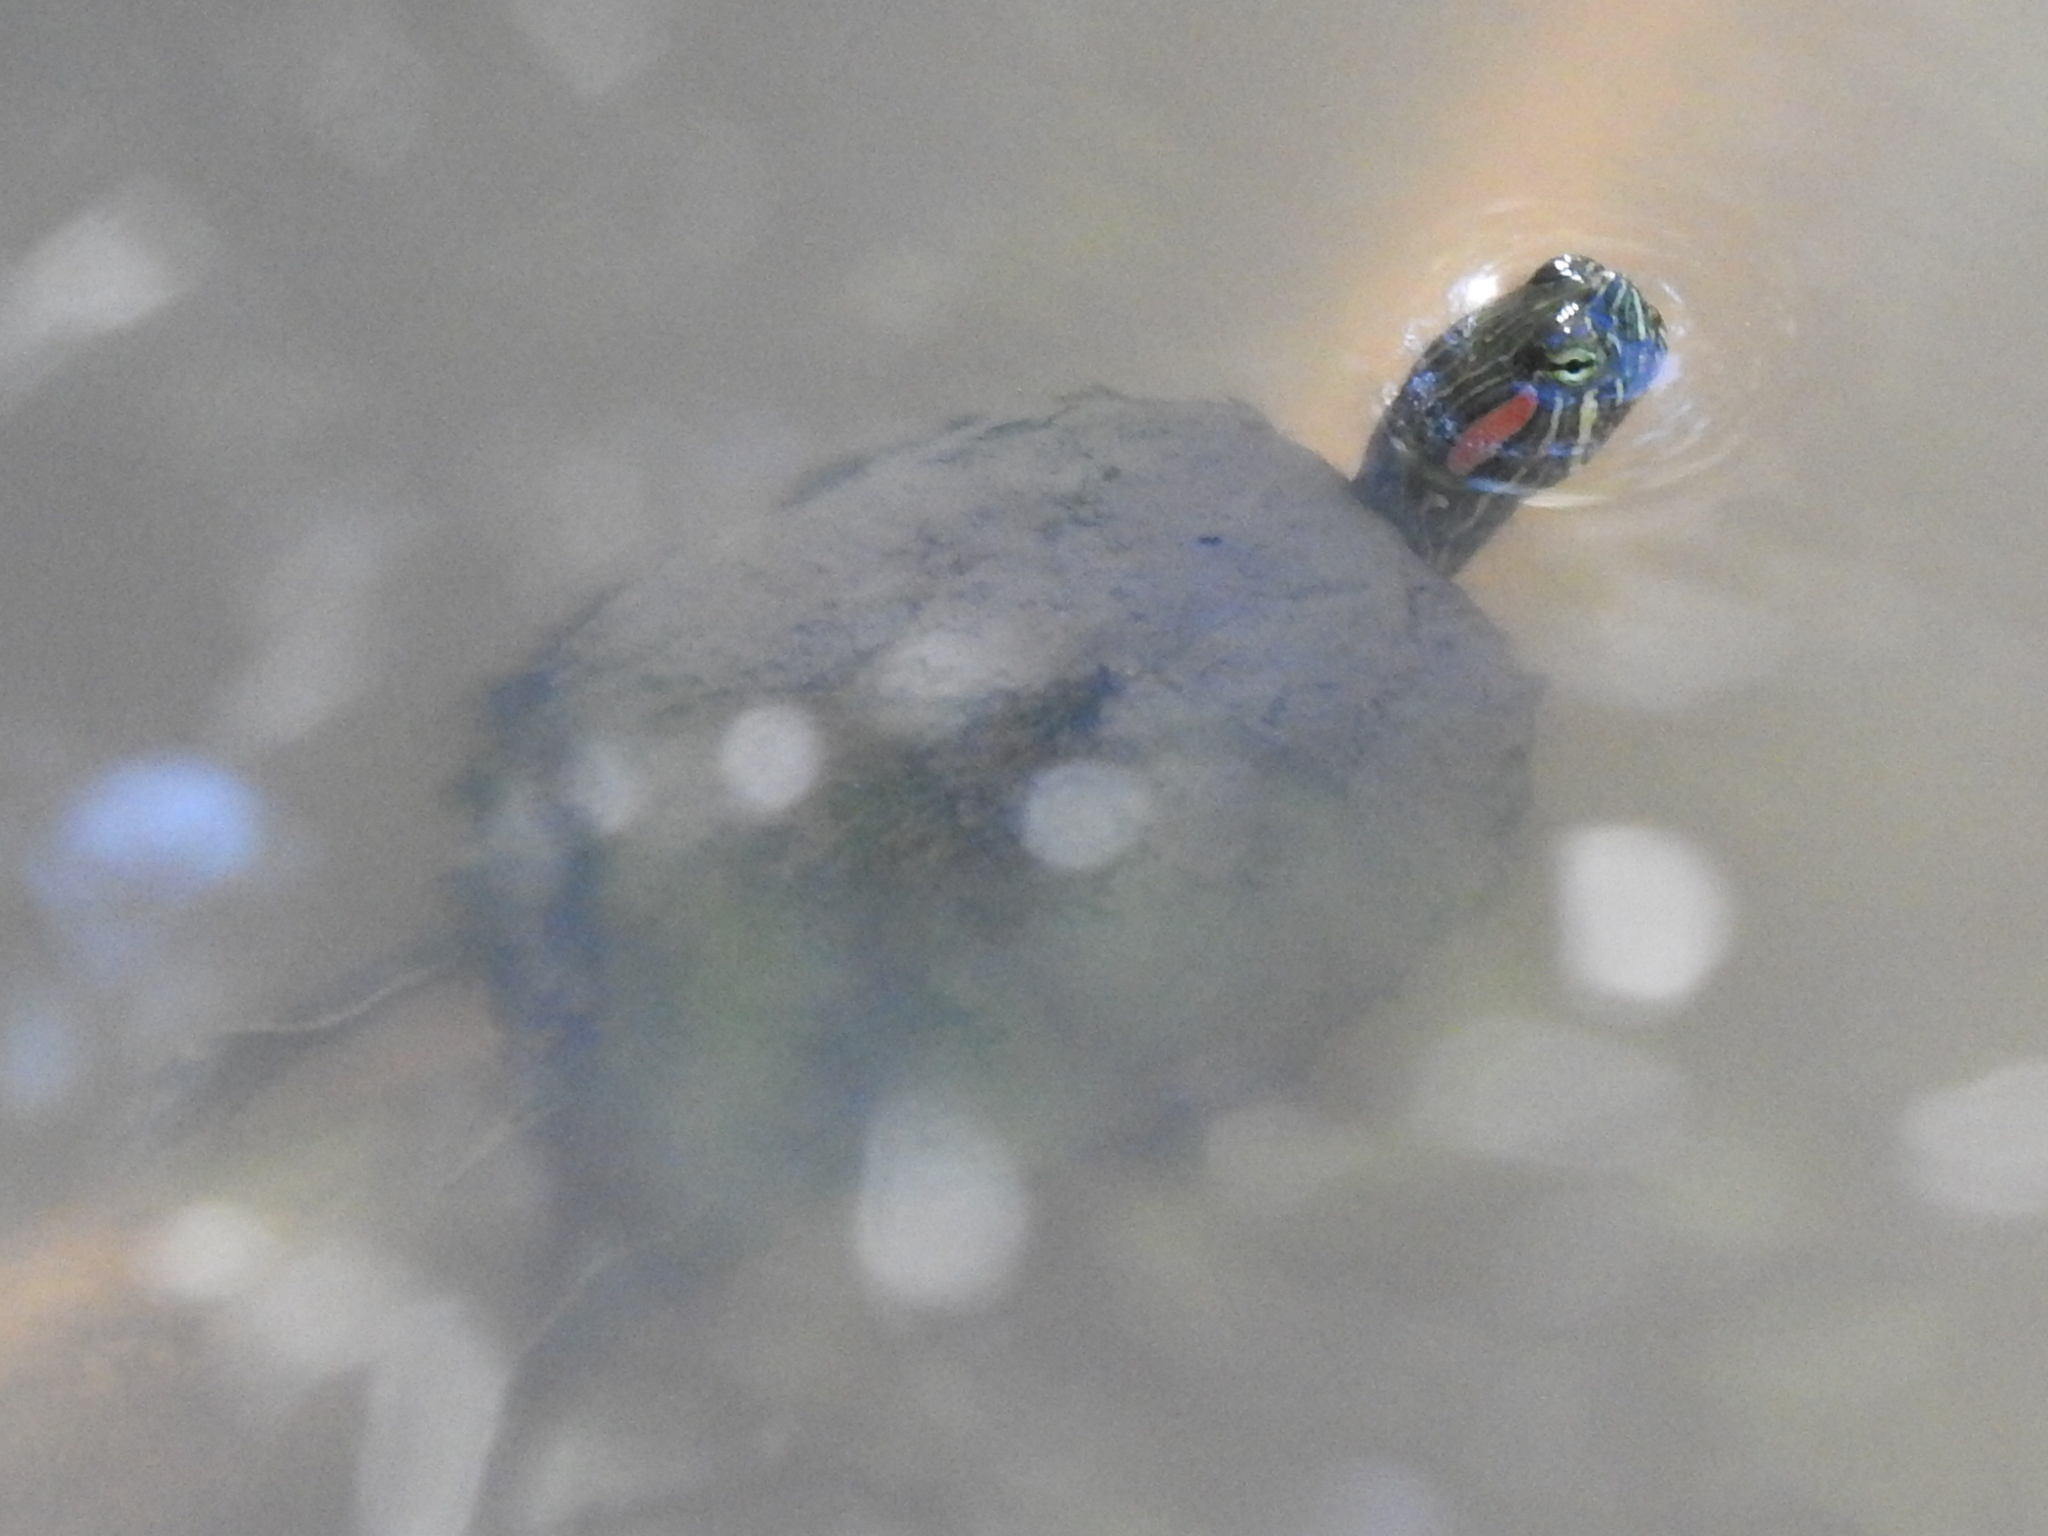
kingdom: Animalia
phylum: Chordata
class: Testudines
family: Emydidae
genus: Trachemys
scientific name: Trachemys scripta
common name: Slider
